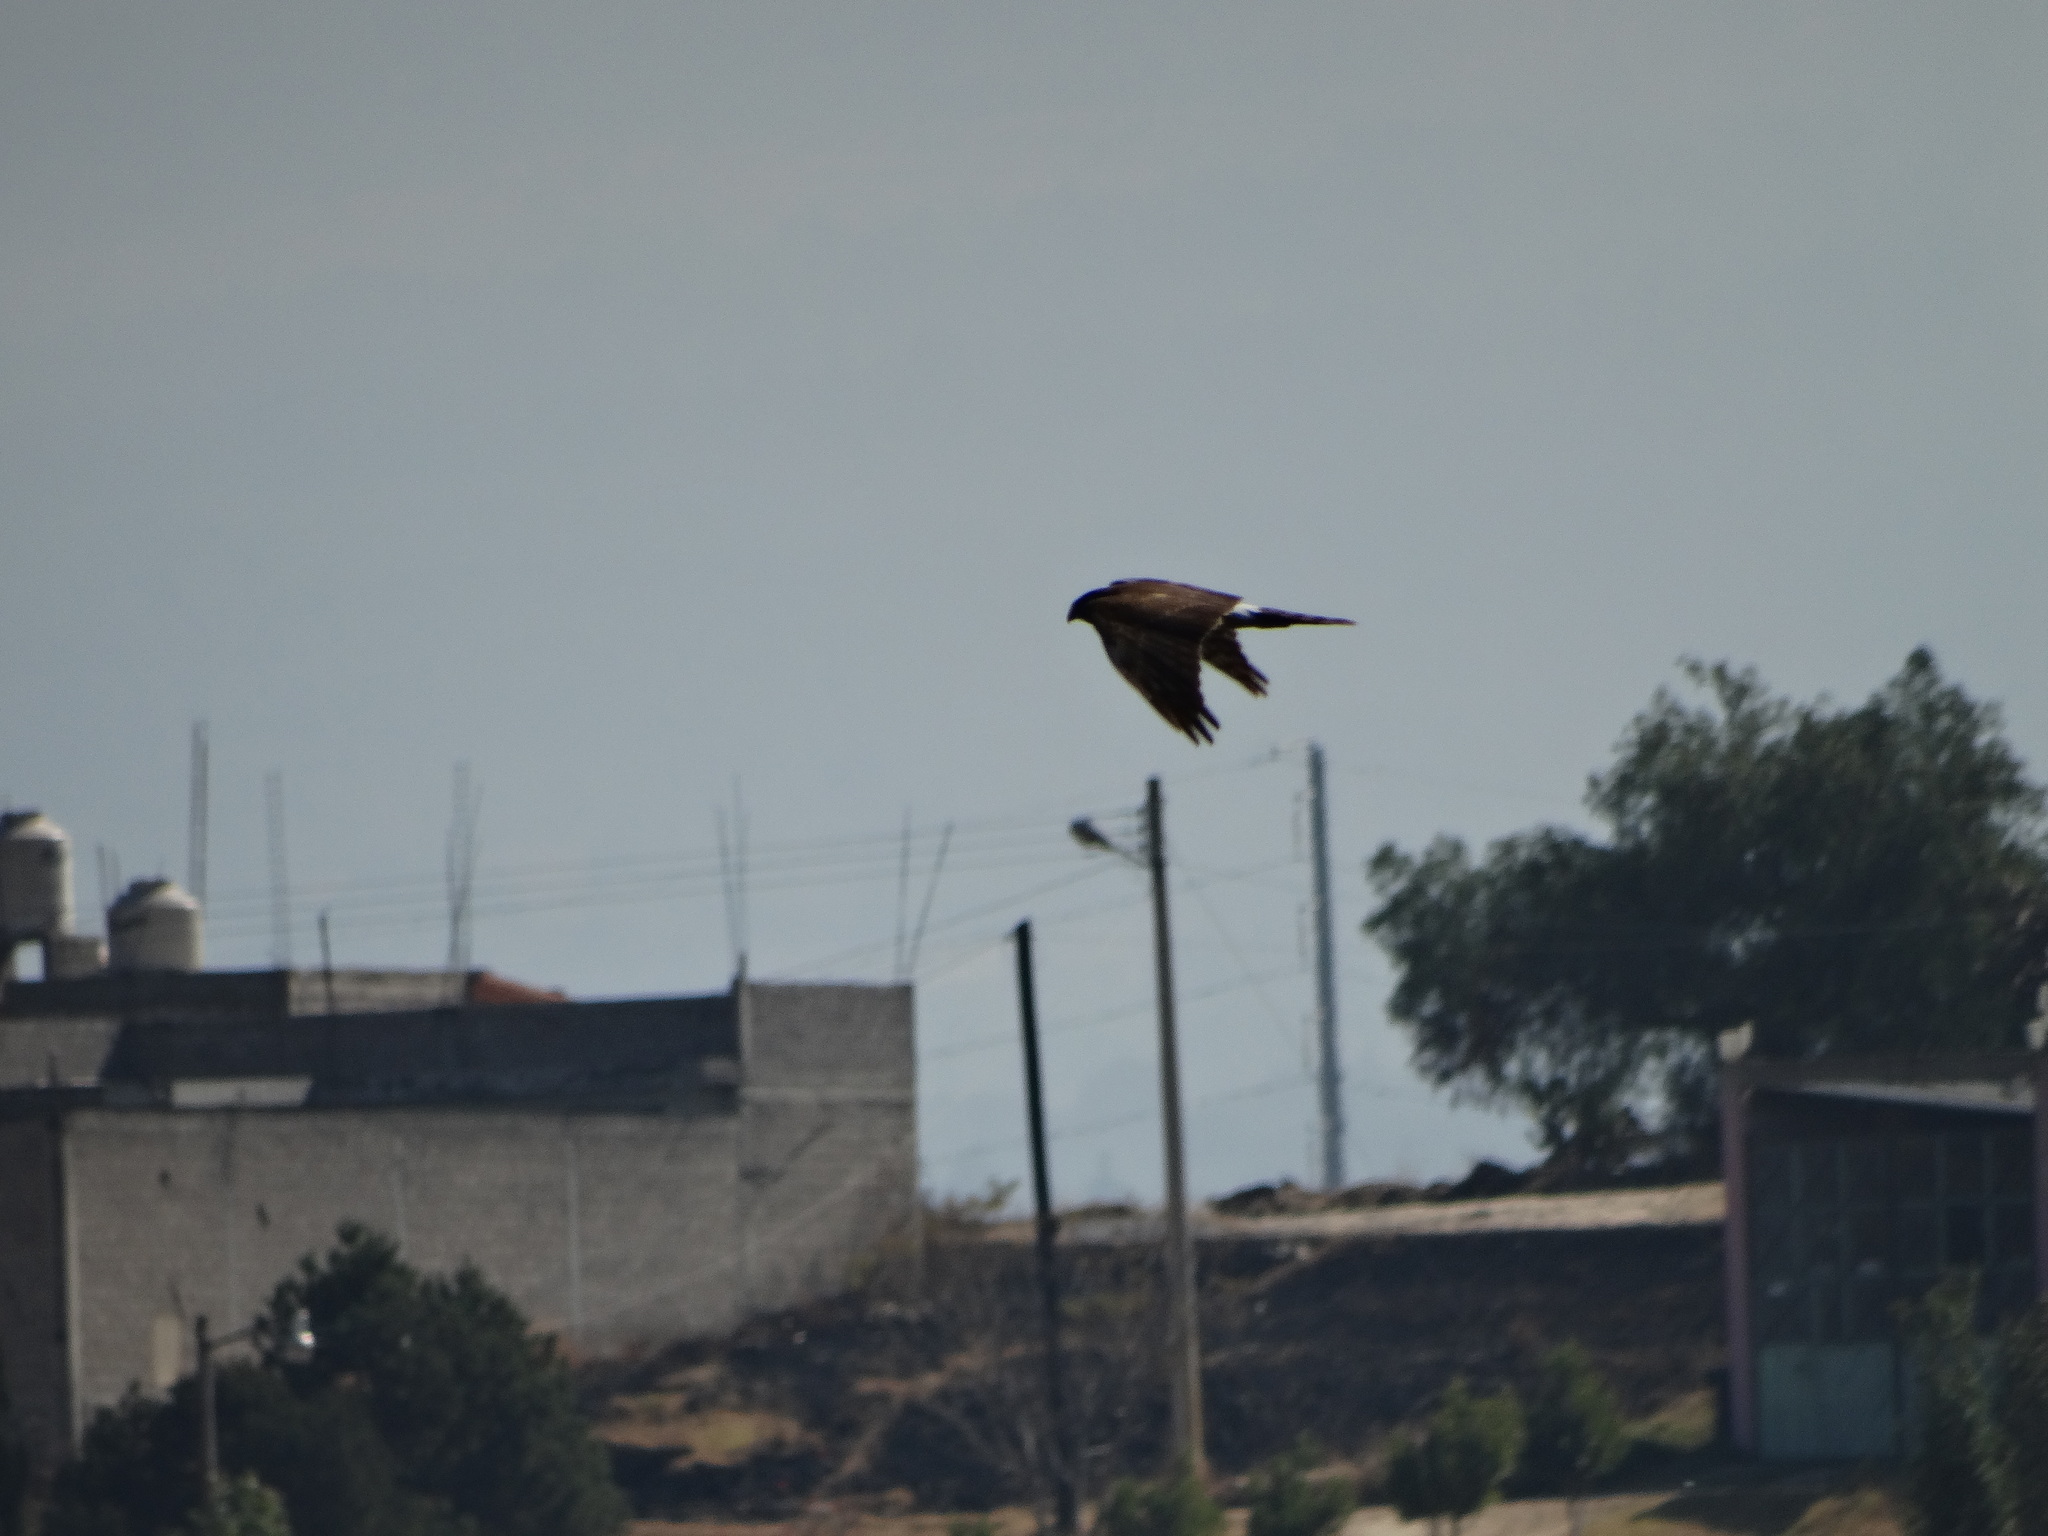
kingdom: Animalia
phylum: Chordata
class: Aves
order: Accipitriformes
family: Accipitridae
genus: Accipiter
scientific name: Accipiter cooperii
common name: Cooper's hawk
